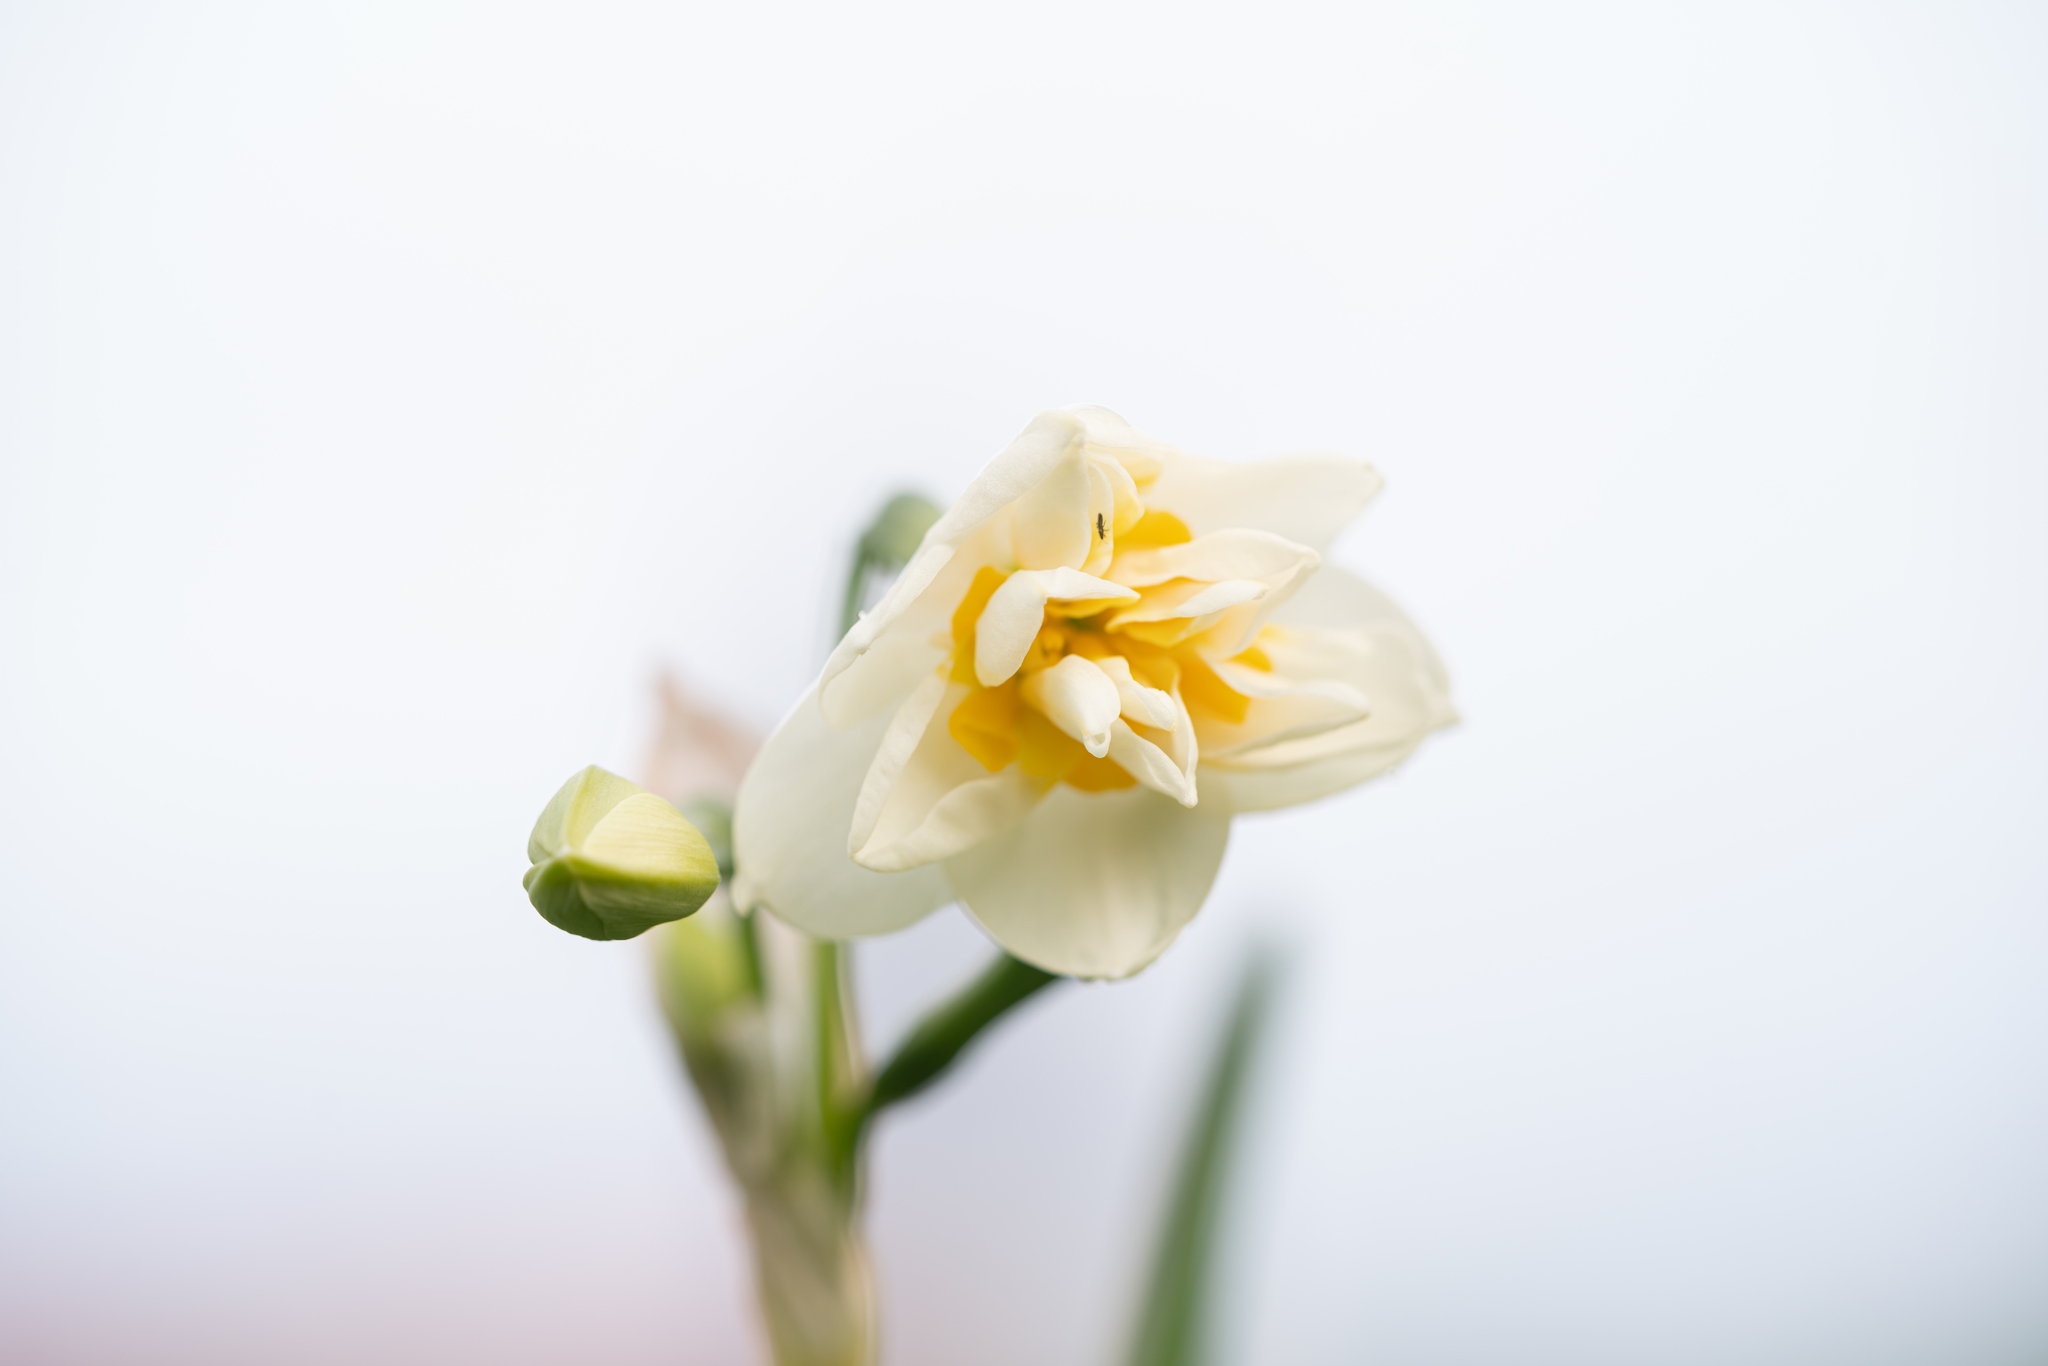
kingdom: Plantae
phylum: Tracheophyta
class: Liliopsida
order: Asparagales
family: Amaryllidaceae
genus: Narcissus
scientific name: Narcissus tazetta
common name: Bunch-flowered daffodil
